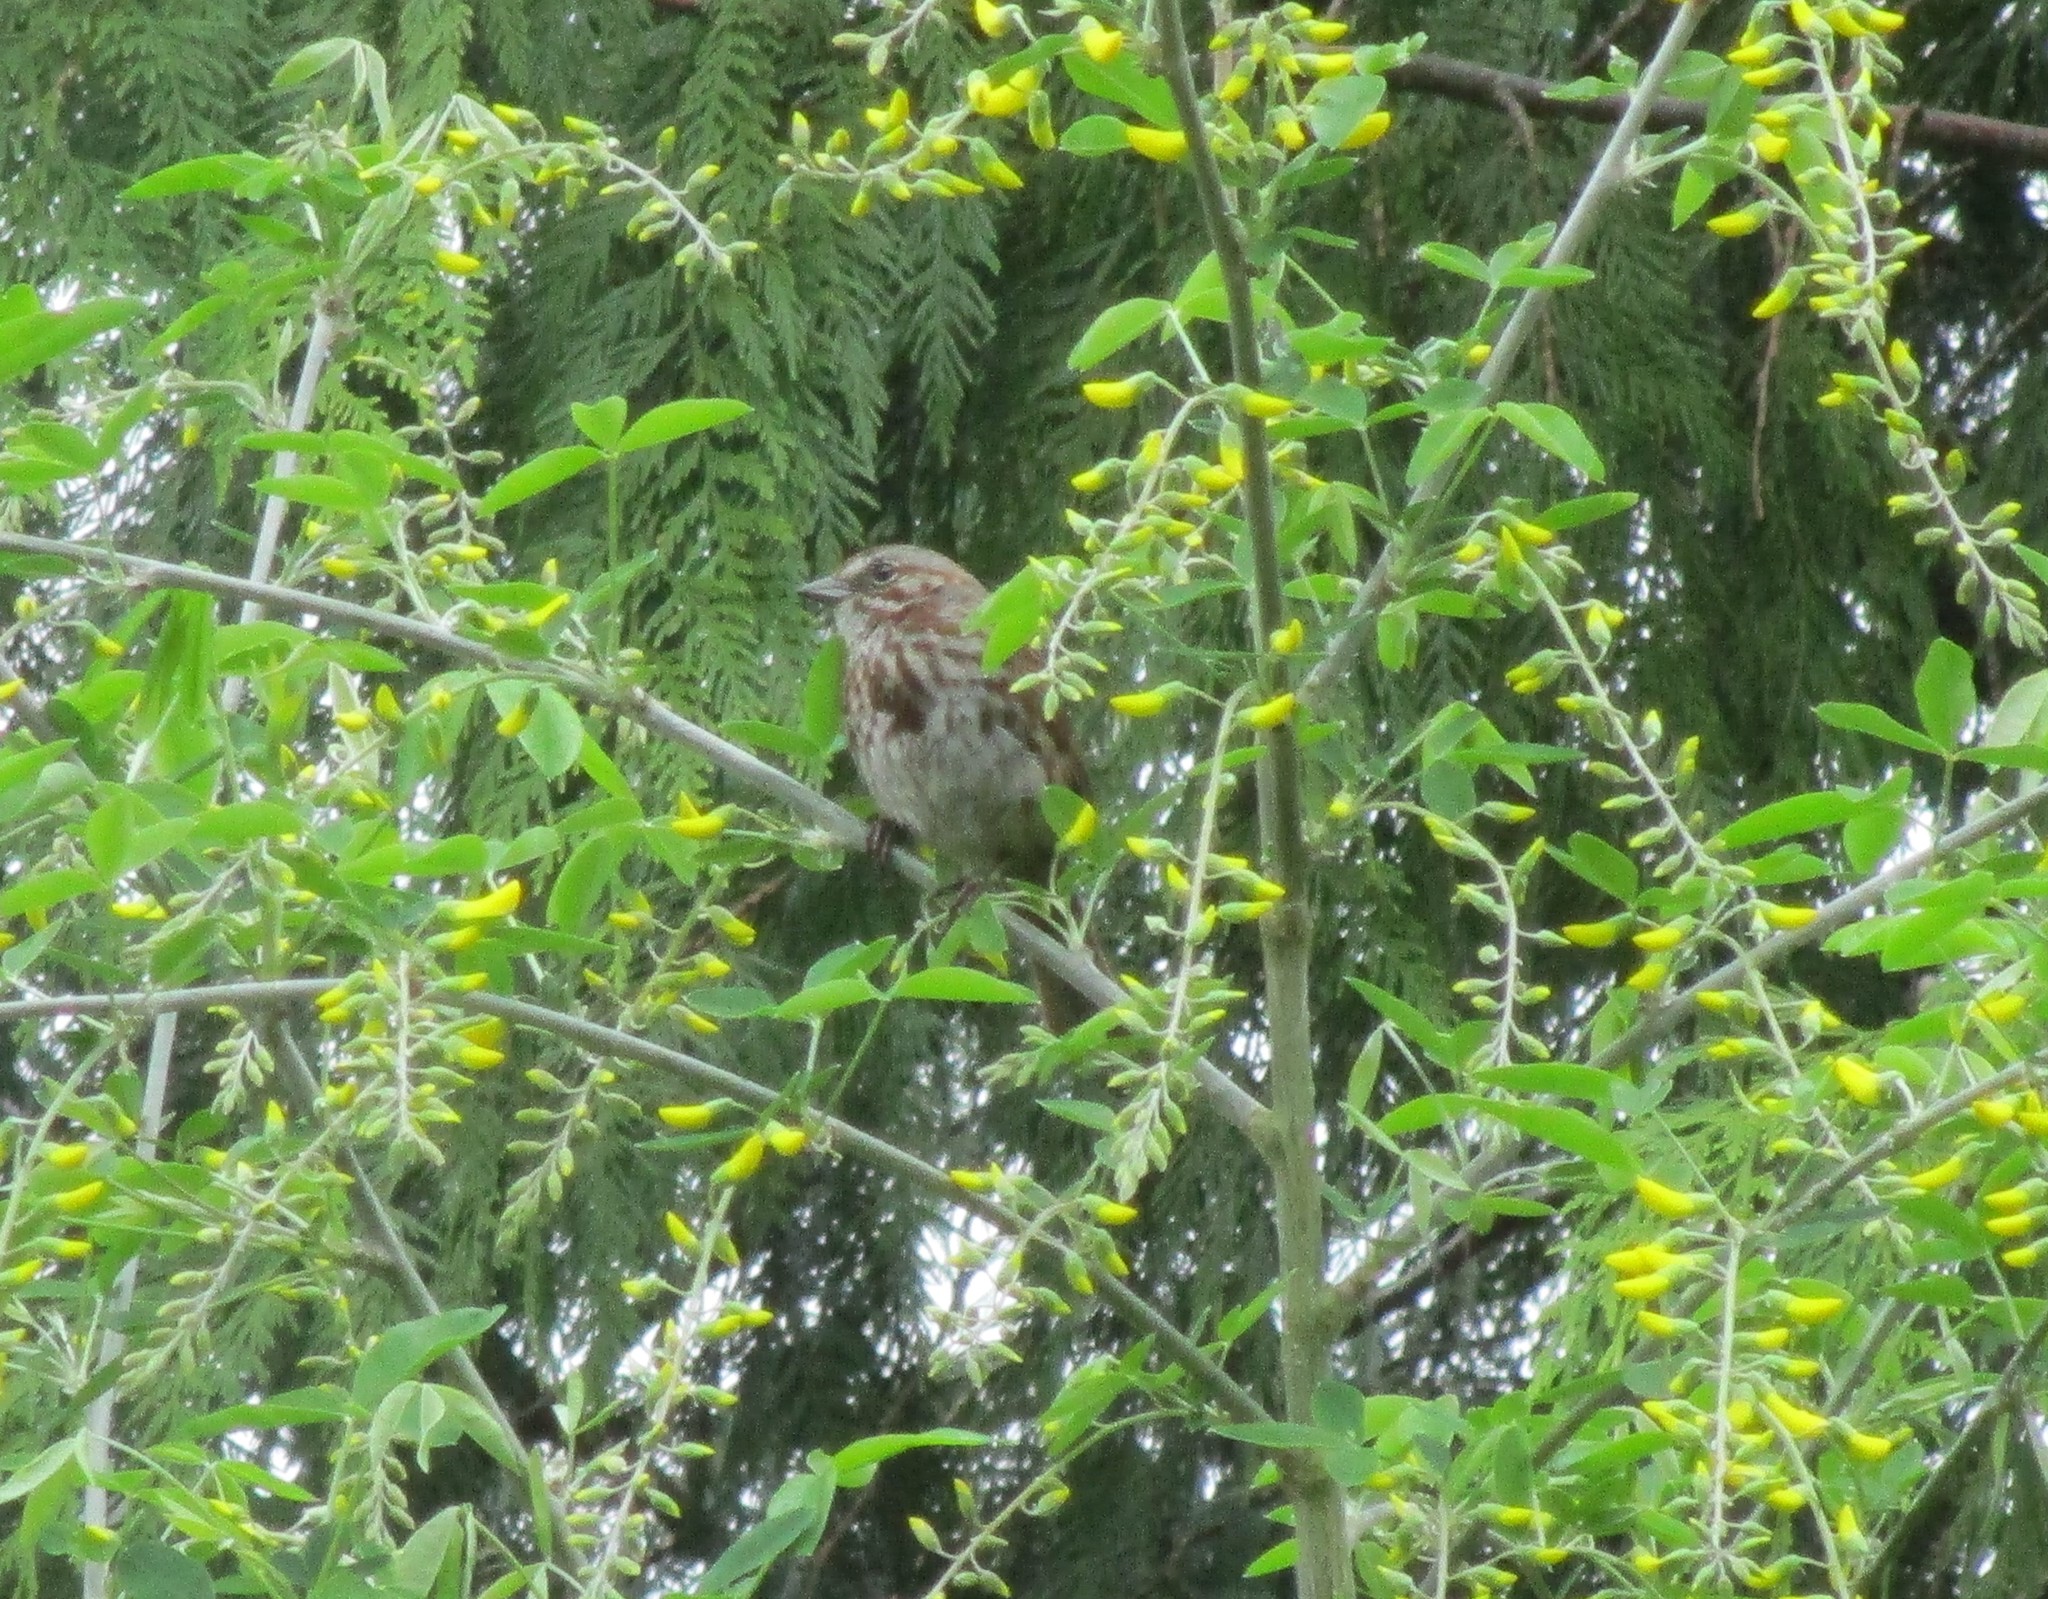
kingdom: Animalia
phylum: Chordata
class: Aves
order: Passeriformes
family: Passerellidae
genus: Melospiza
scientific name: Melospiza melodia
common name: Song sparrow
